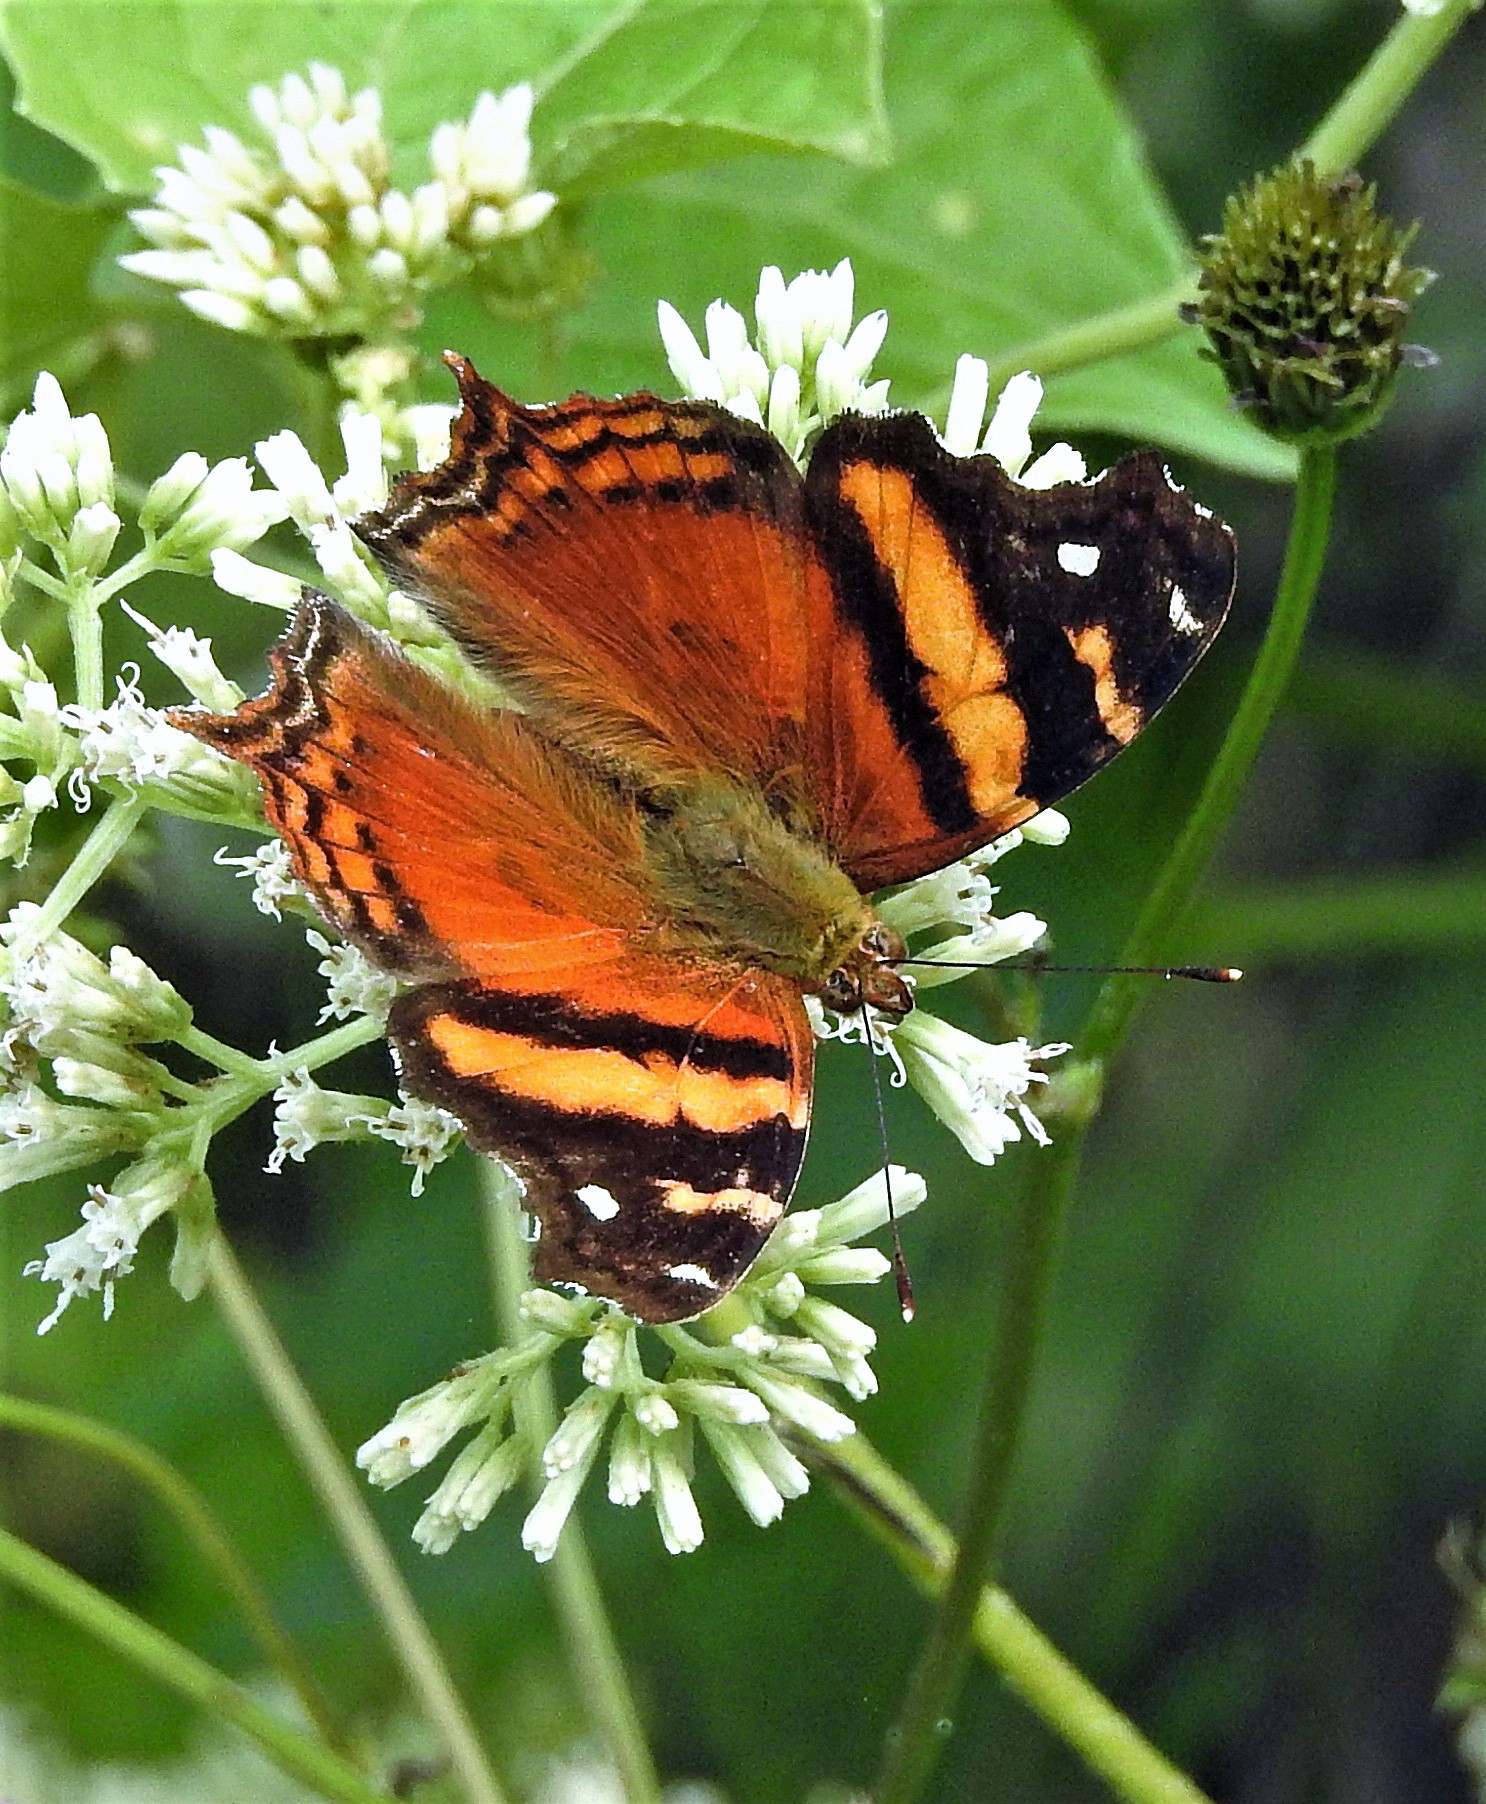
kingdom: Animalia
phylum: Arthropoda
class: Insecta
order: Lepidoptera
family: Nymphalidae
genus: Hypanartia
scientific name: Hypanartia bella
